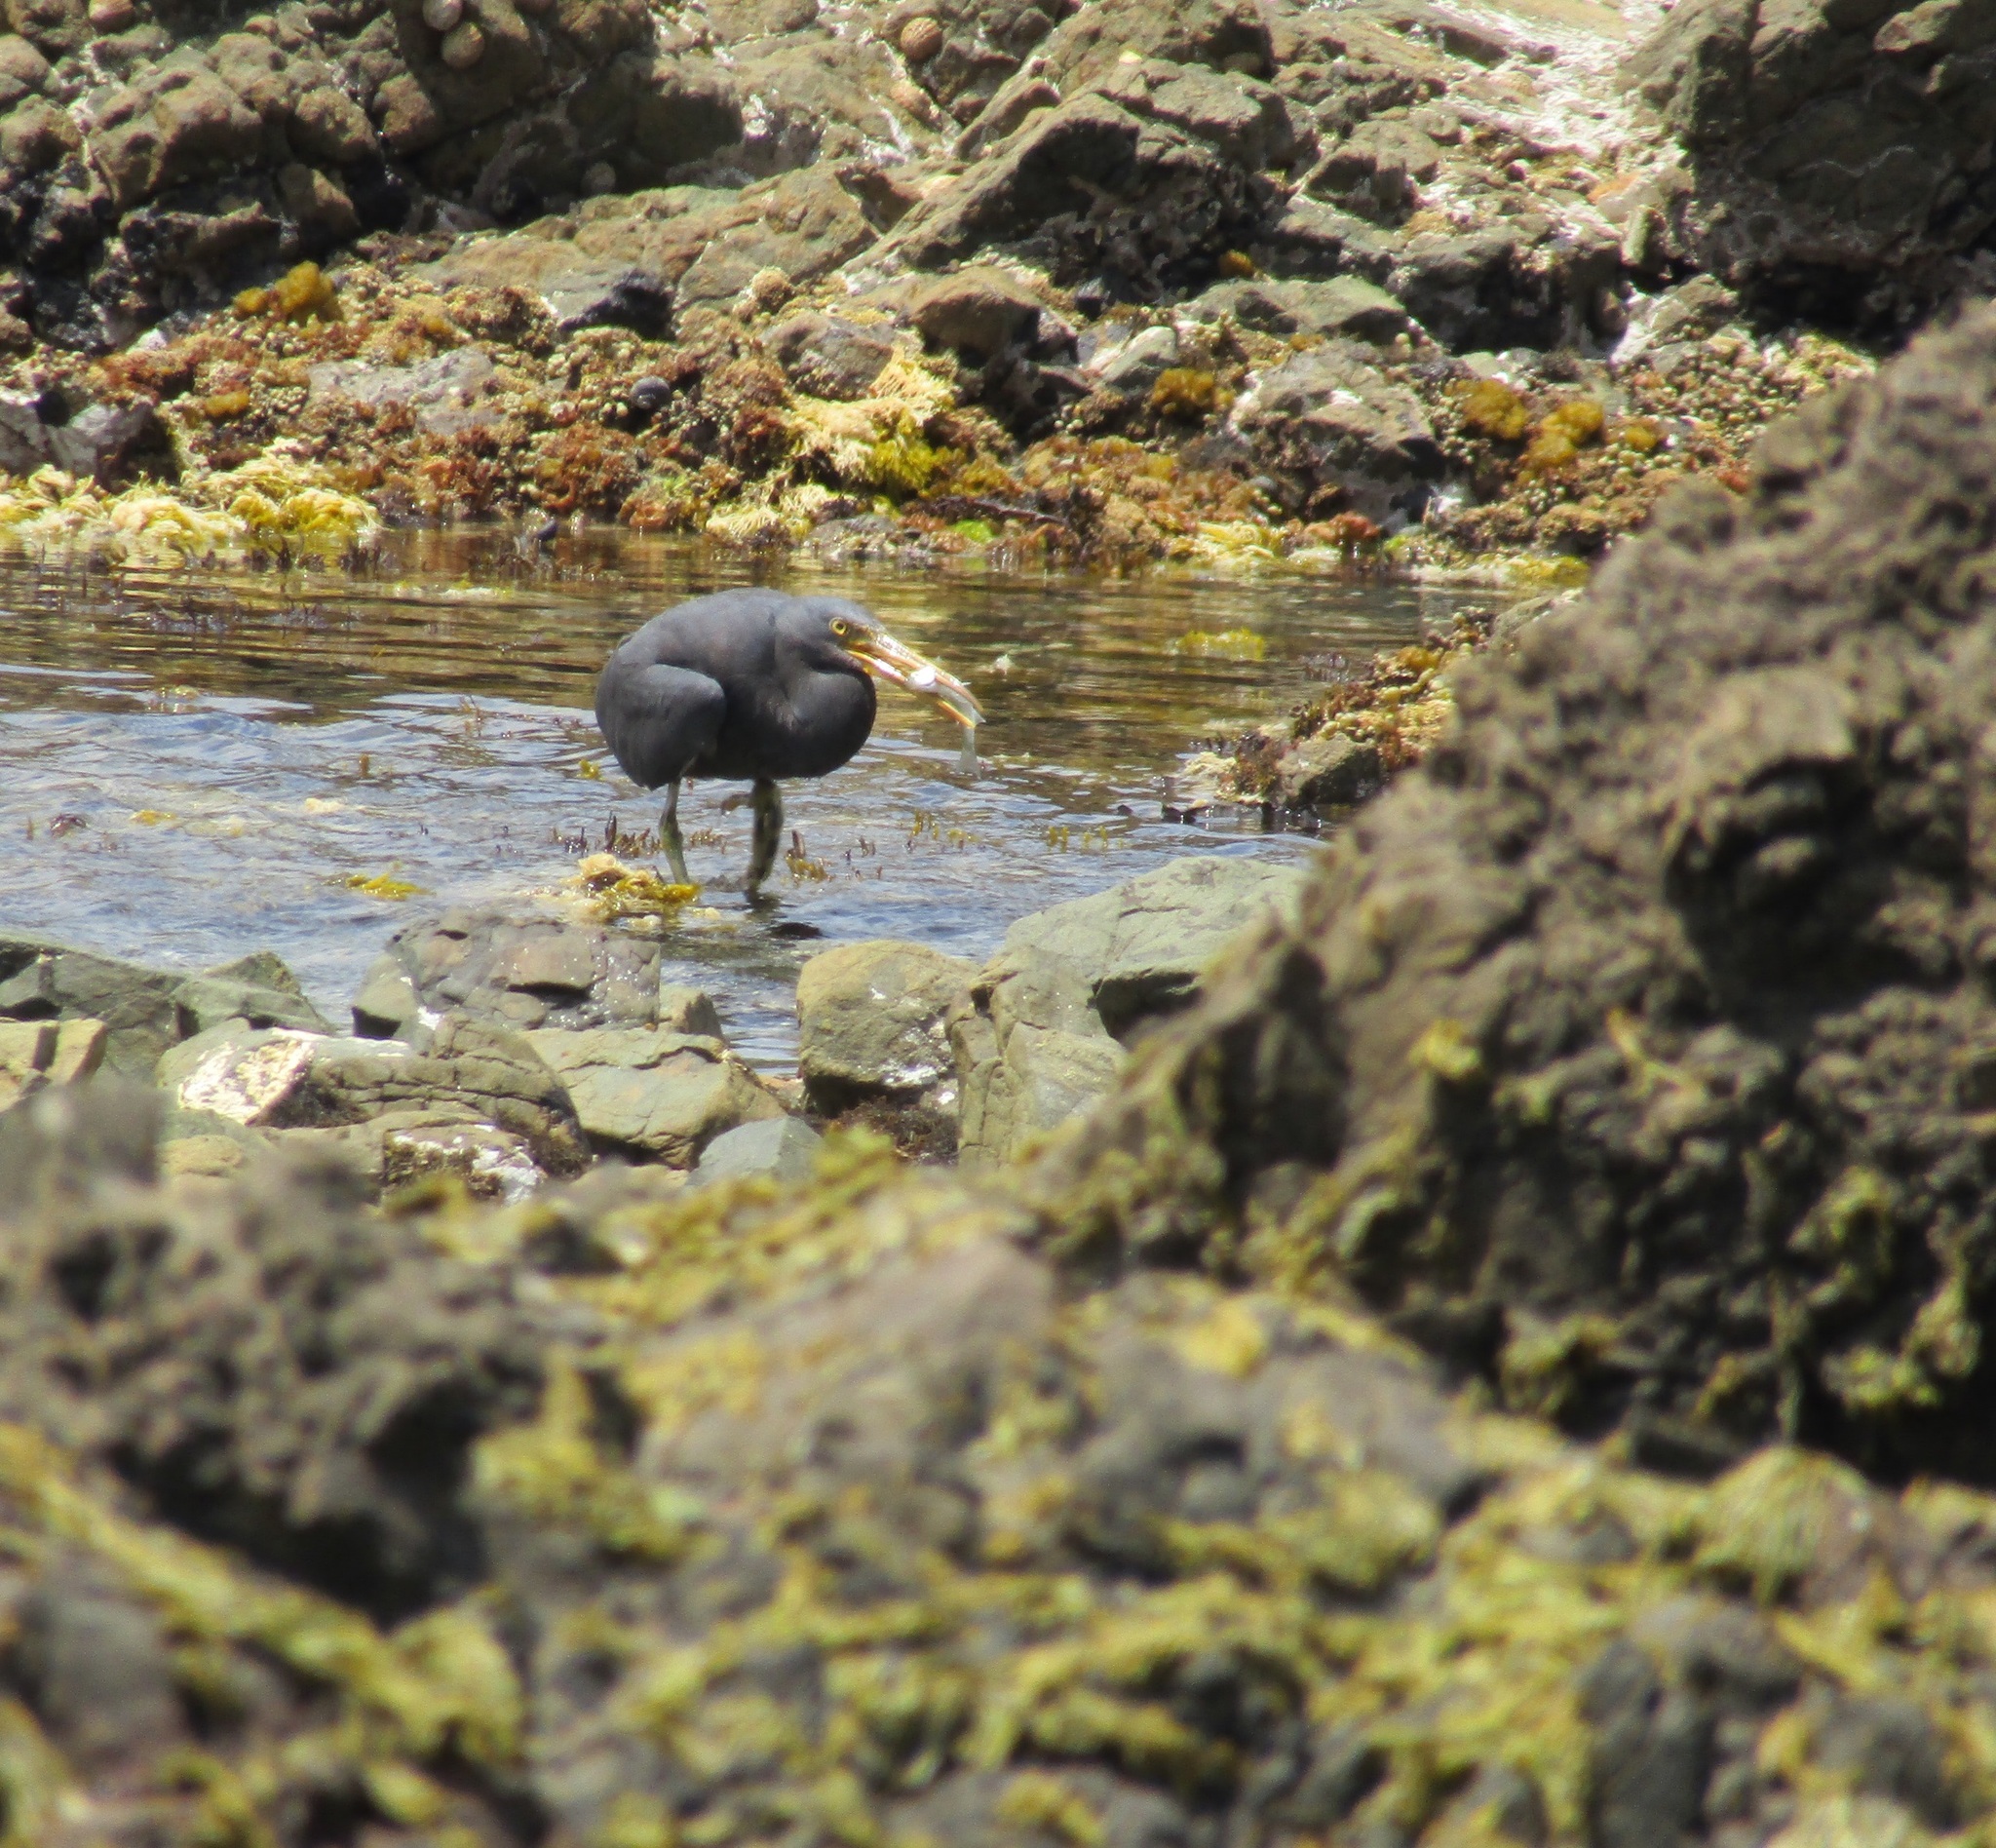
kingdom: Animalia
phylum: Chordata
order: Mugiliformes
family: Mugilidae
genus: Aldrichetta
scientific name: Aldrichetta forsteri
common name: Yellow-eye mullet
